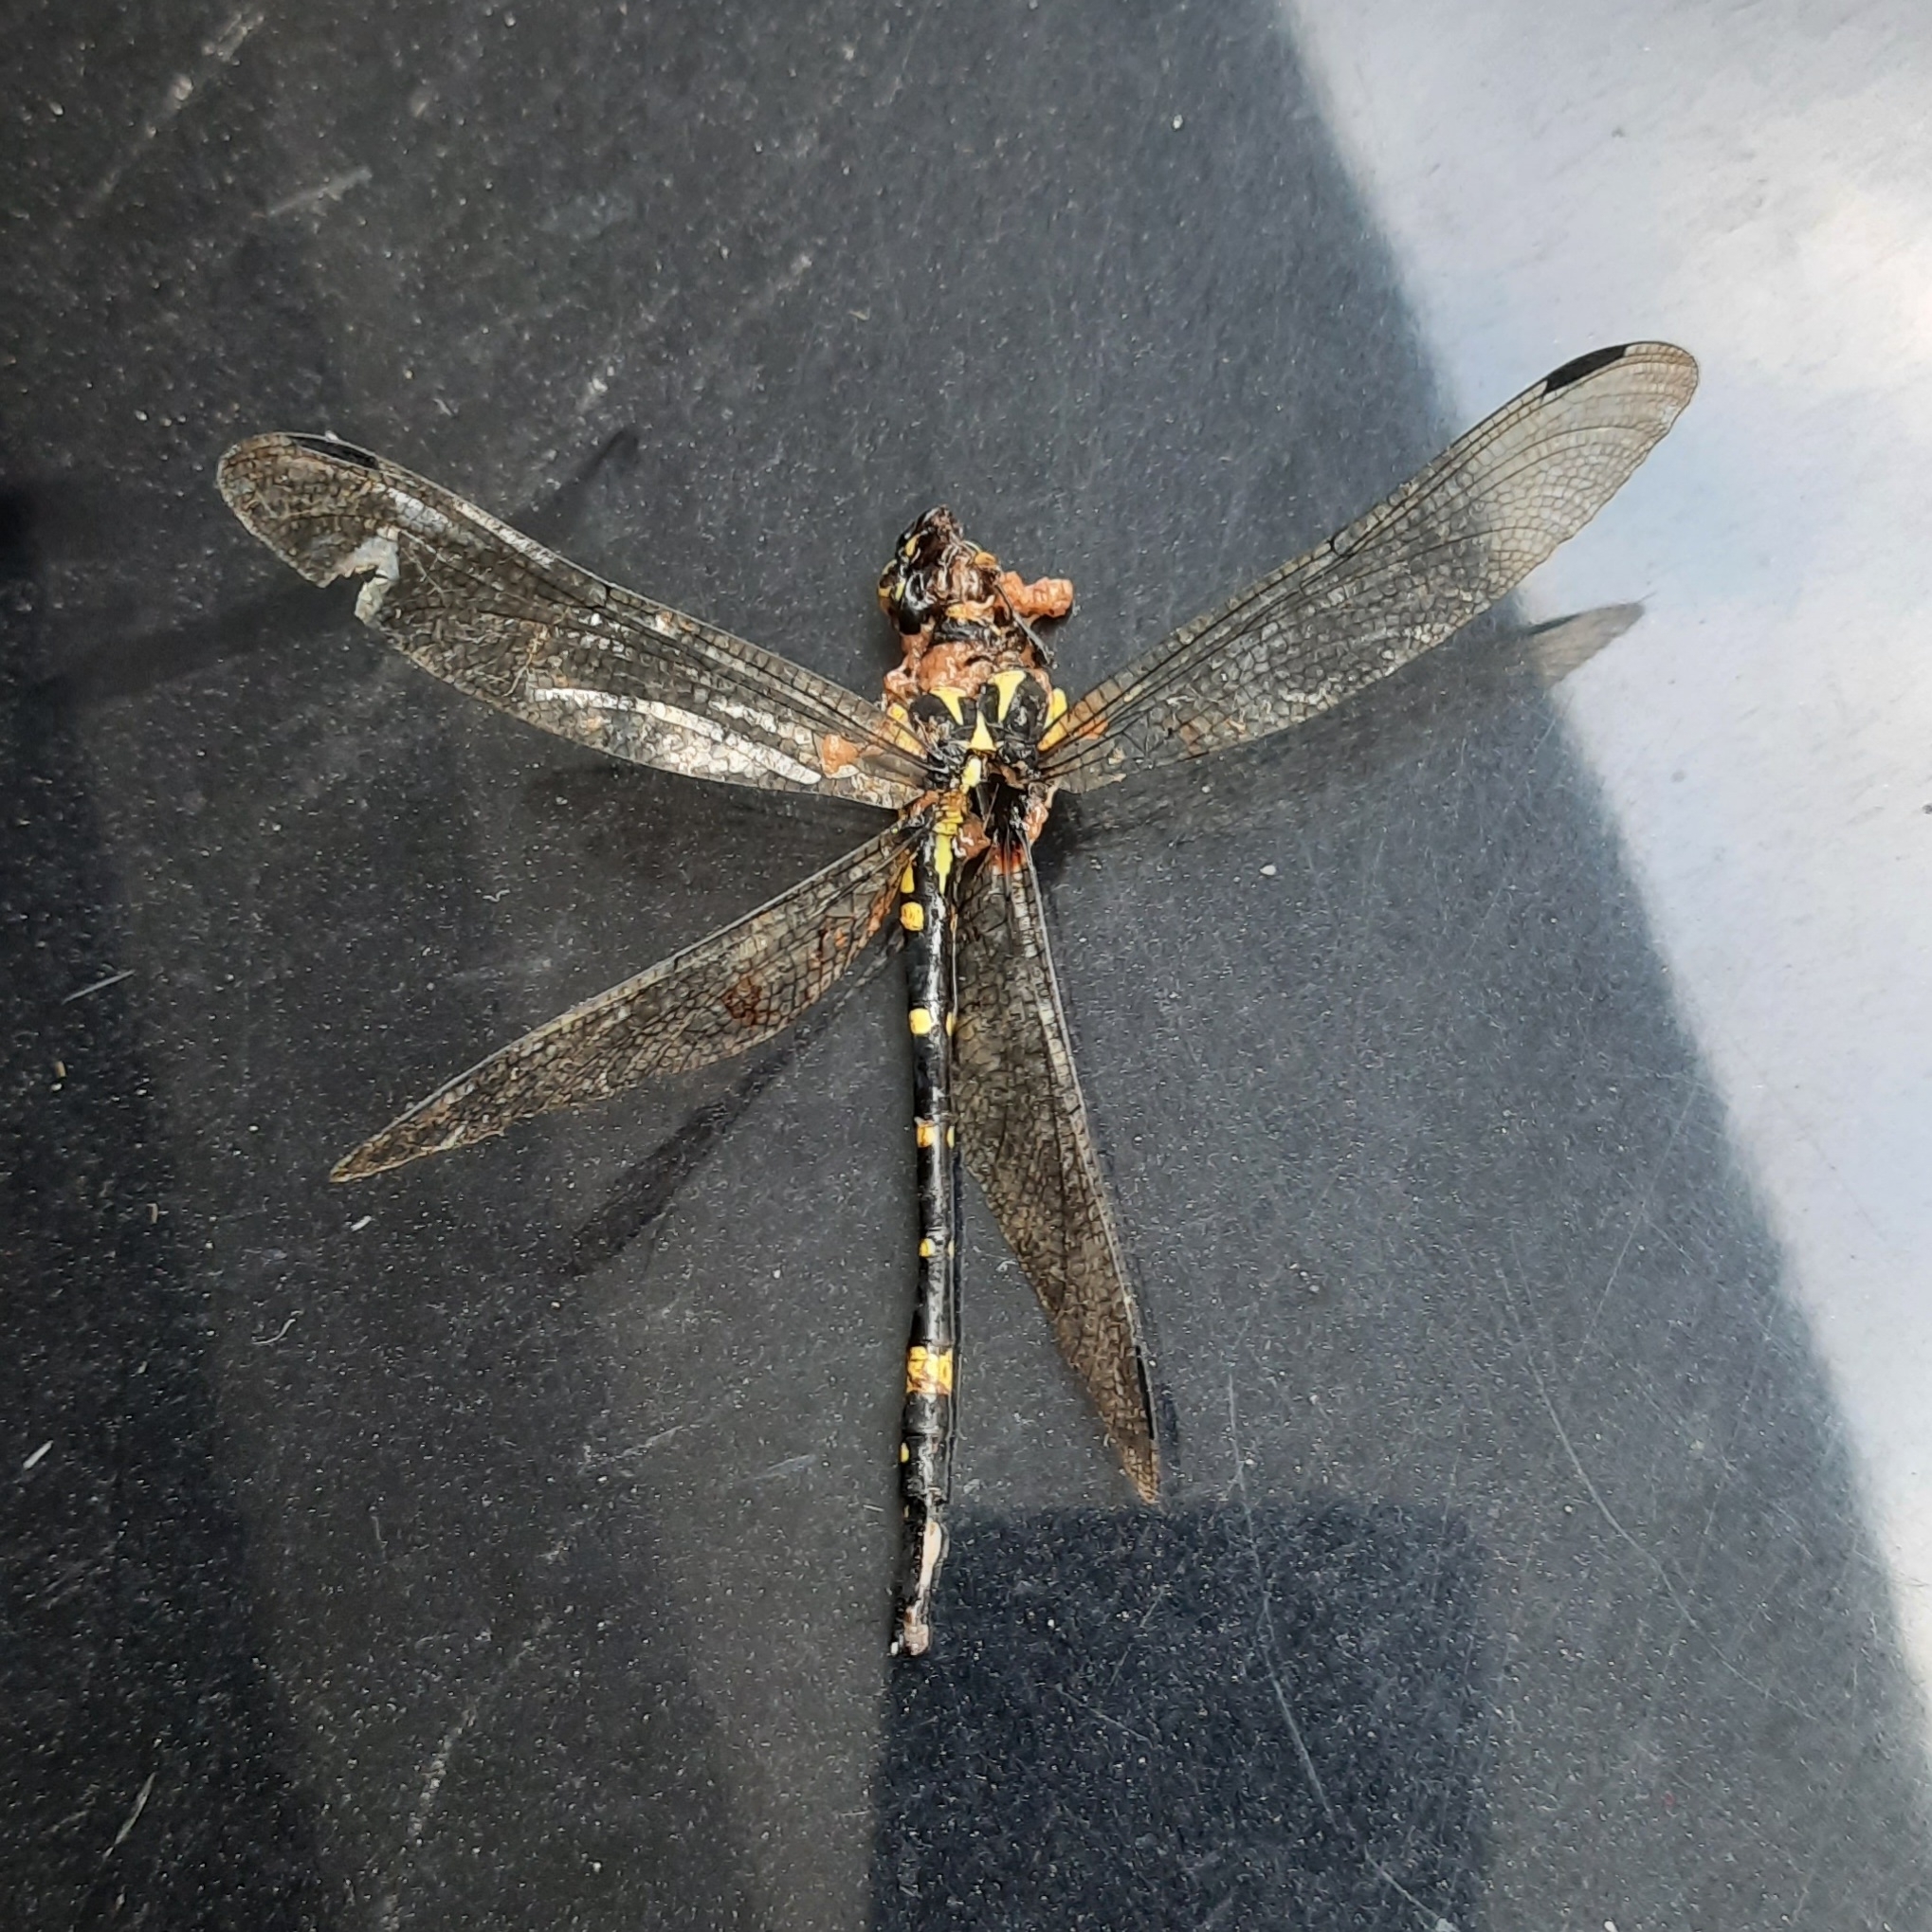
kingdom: Animalia
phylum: Arthropoda
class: Insecta
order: Odonata
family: Gomphidae
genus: Macrogomphus
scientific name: Macrogomphus wynaadicus
